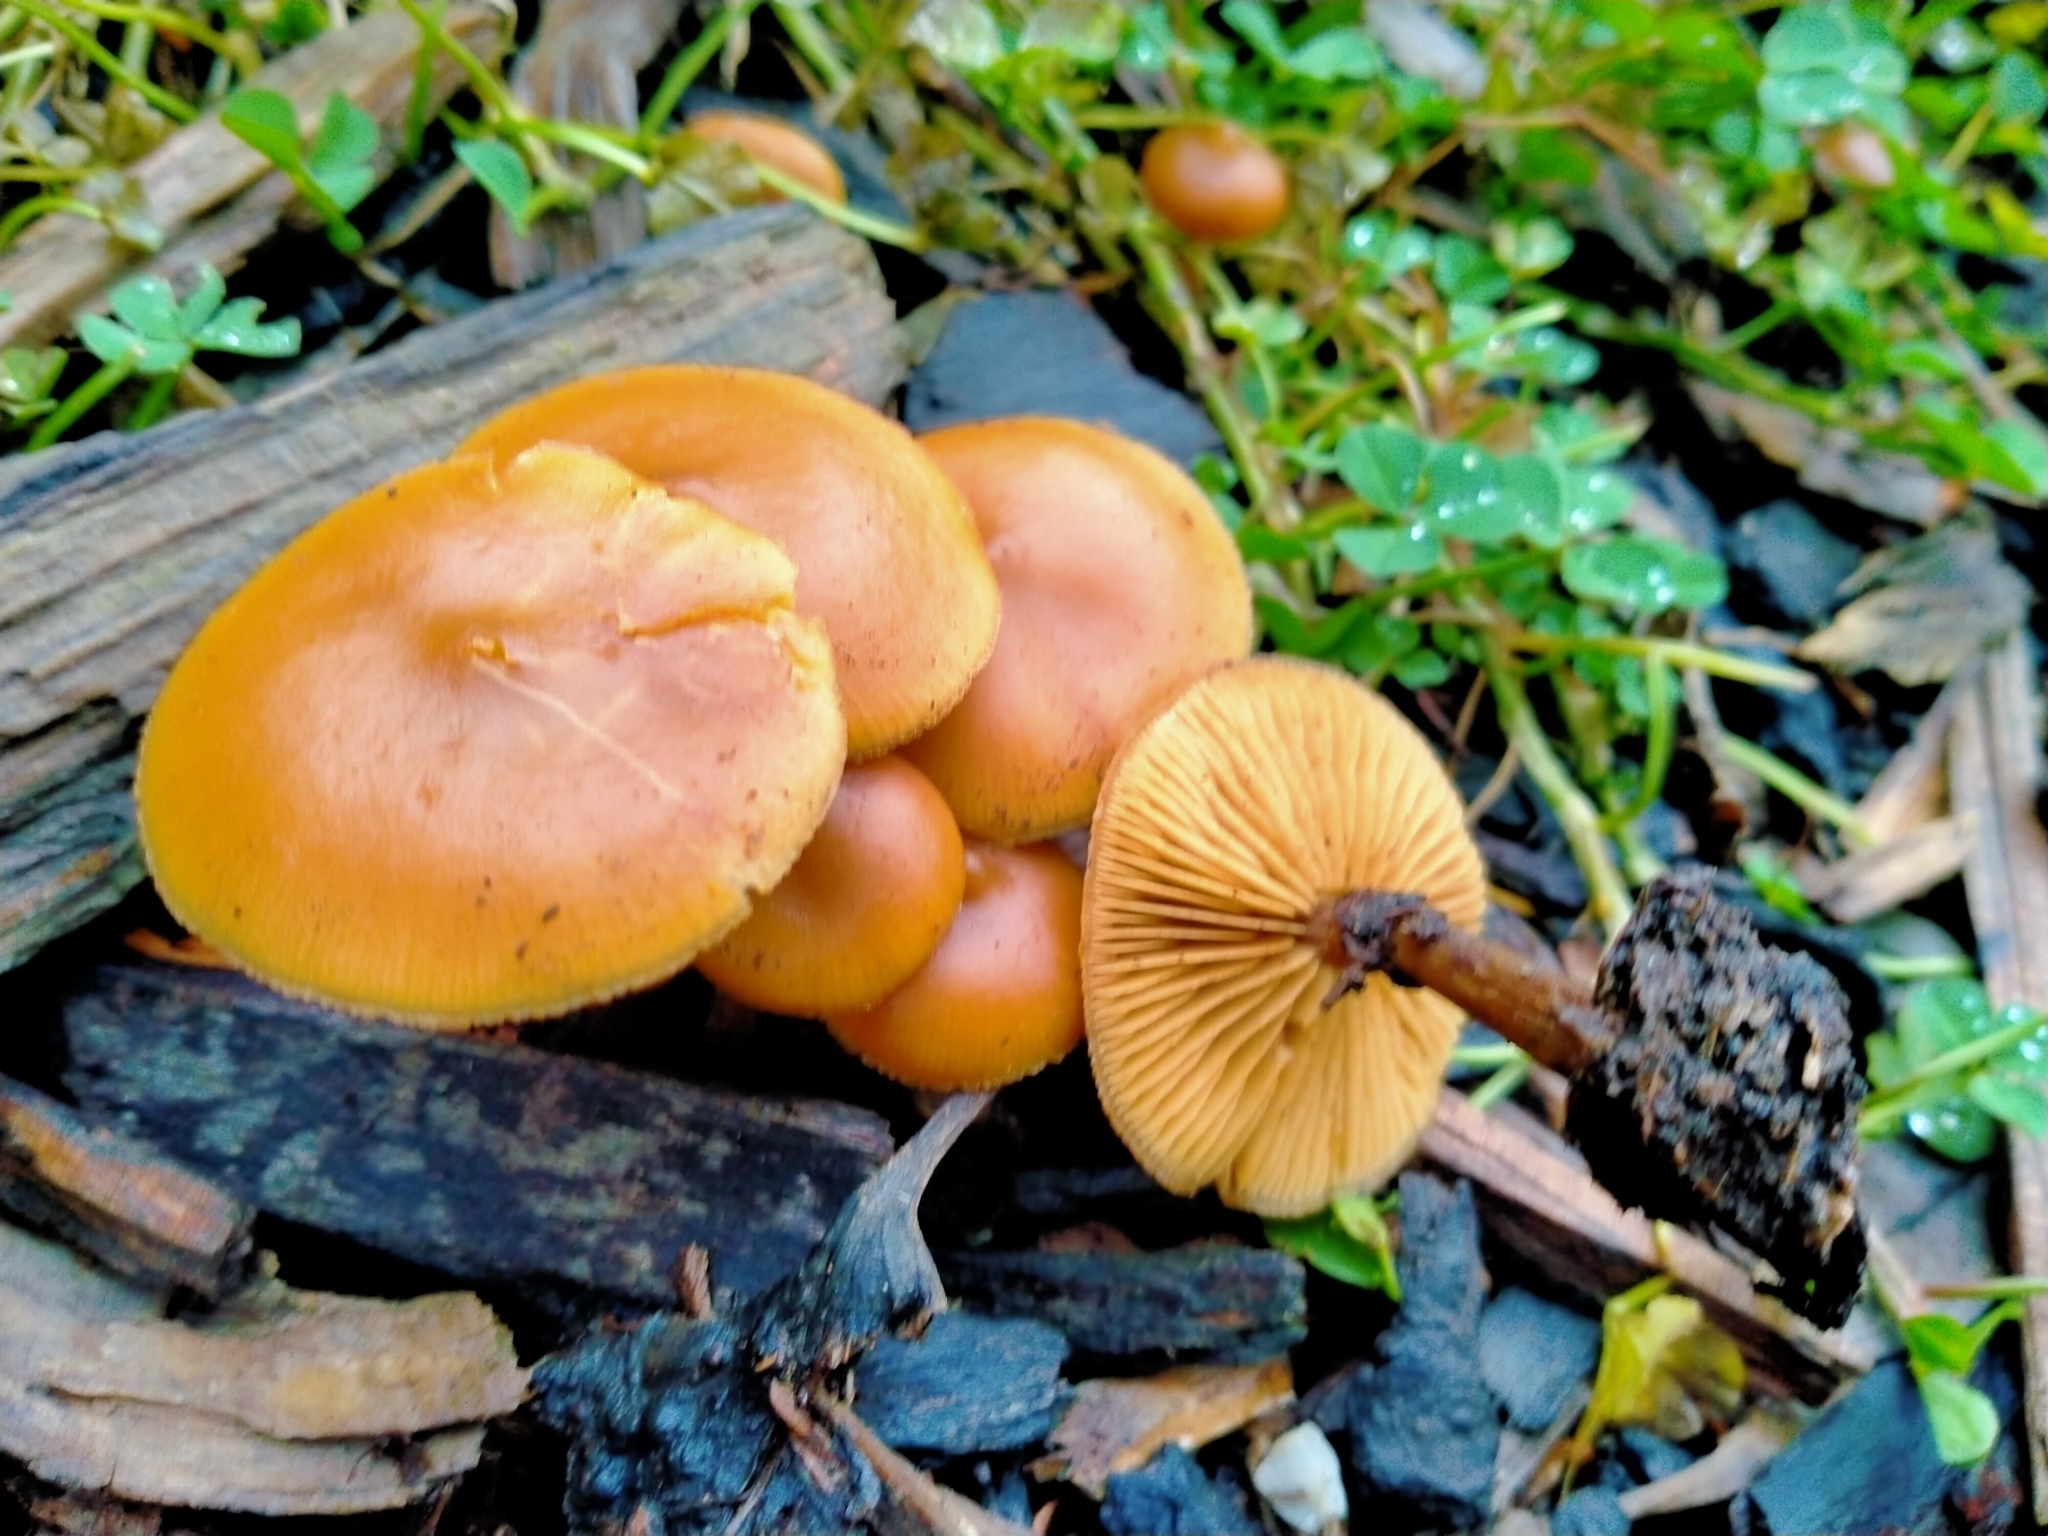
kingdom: Fungi
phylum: Basidiomycota
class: Agaricomycetes
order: Agaricales
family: Hymenogastraceae
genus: Galerina
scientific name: Galerina patagonica
